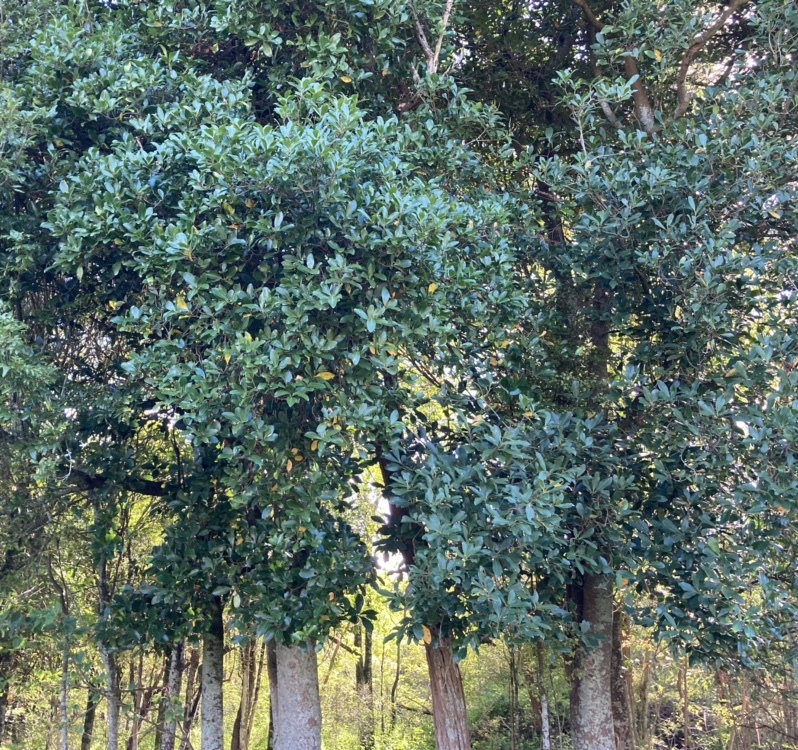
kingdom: Plantae
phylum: Tracheophyta
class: Magnoliopsida
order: Cucurbitales
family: Corynocarpaceae
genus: Corynocarpus
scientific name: Corynocarpus laevigatus
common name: New zealand laurel
